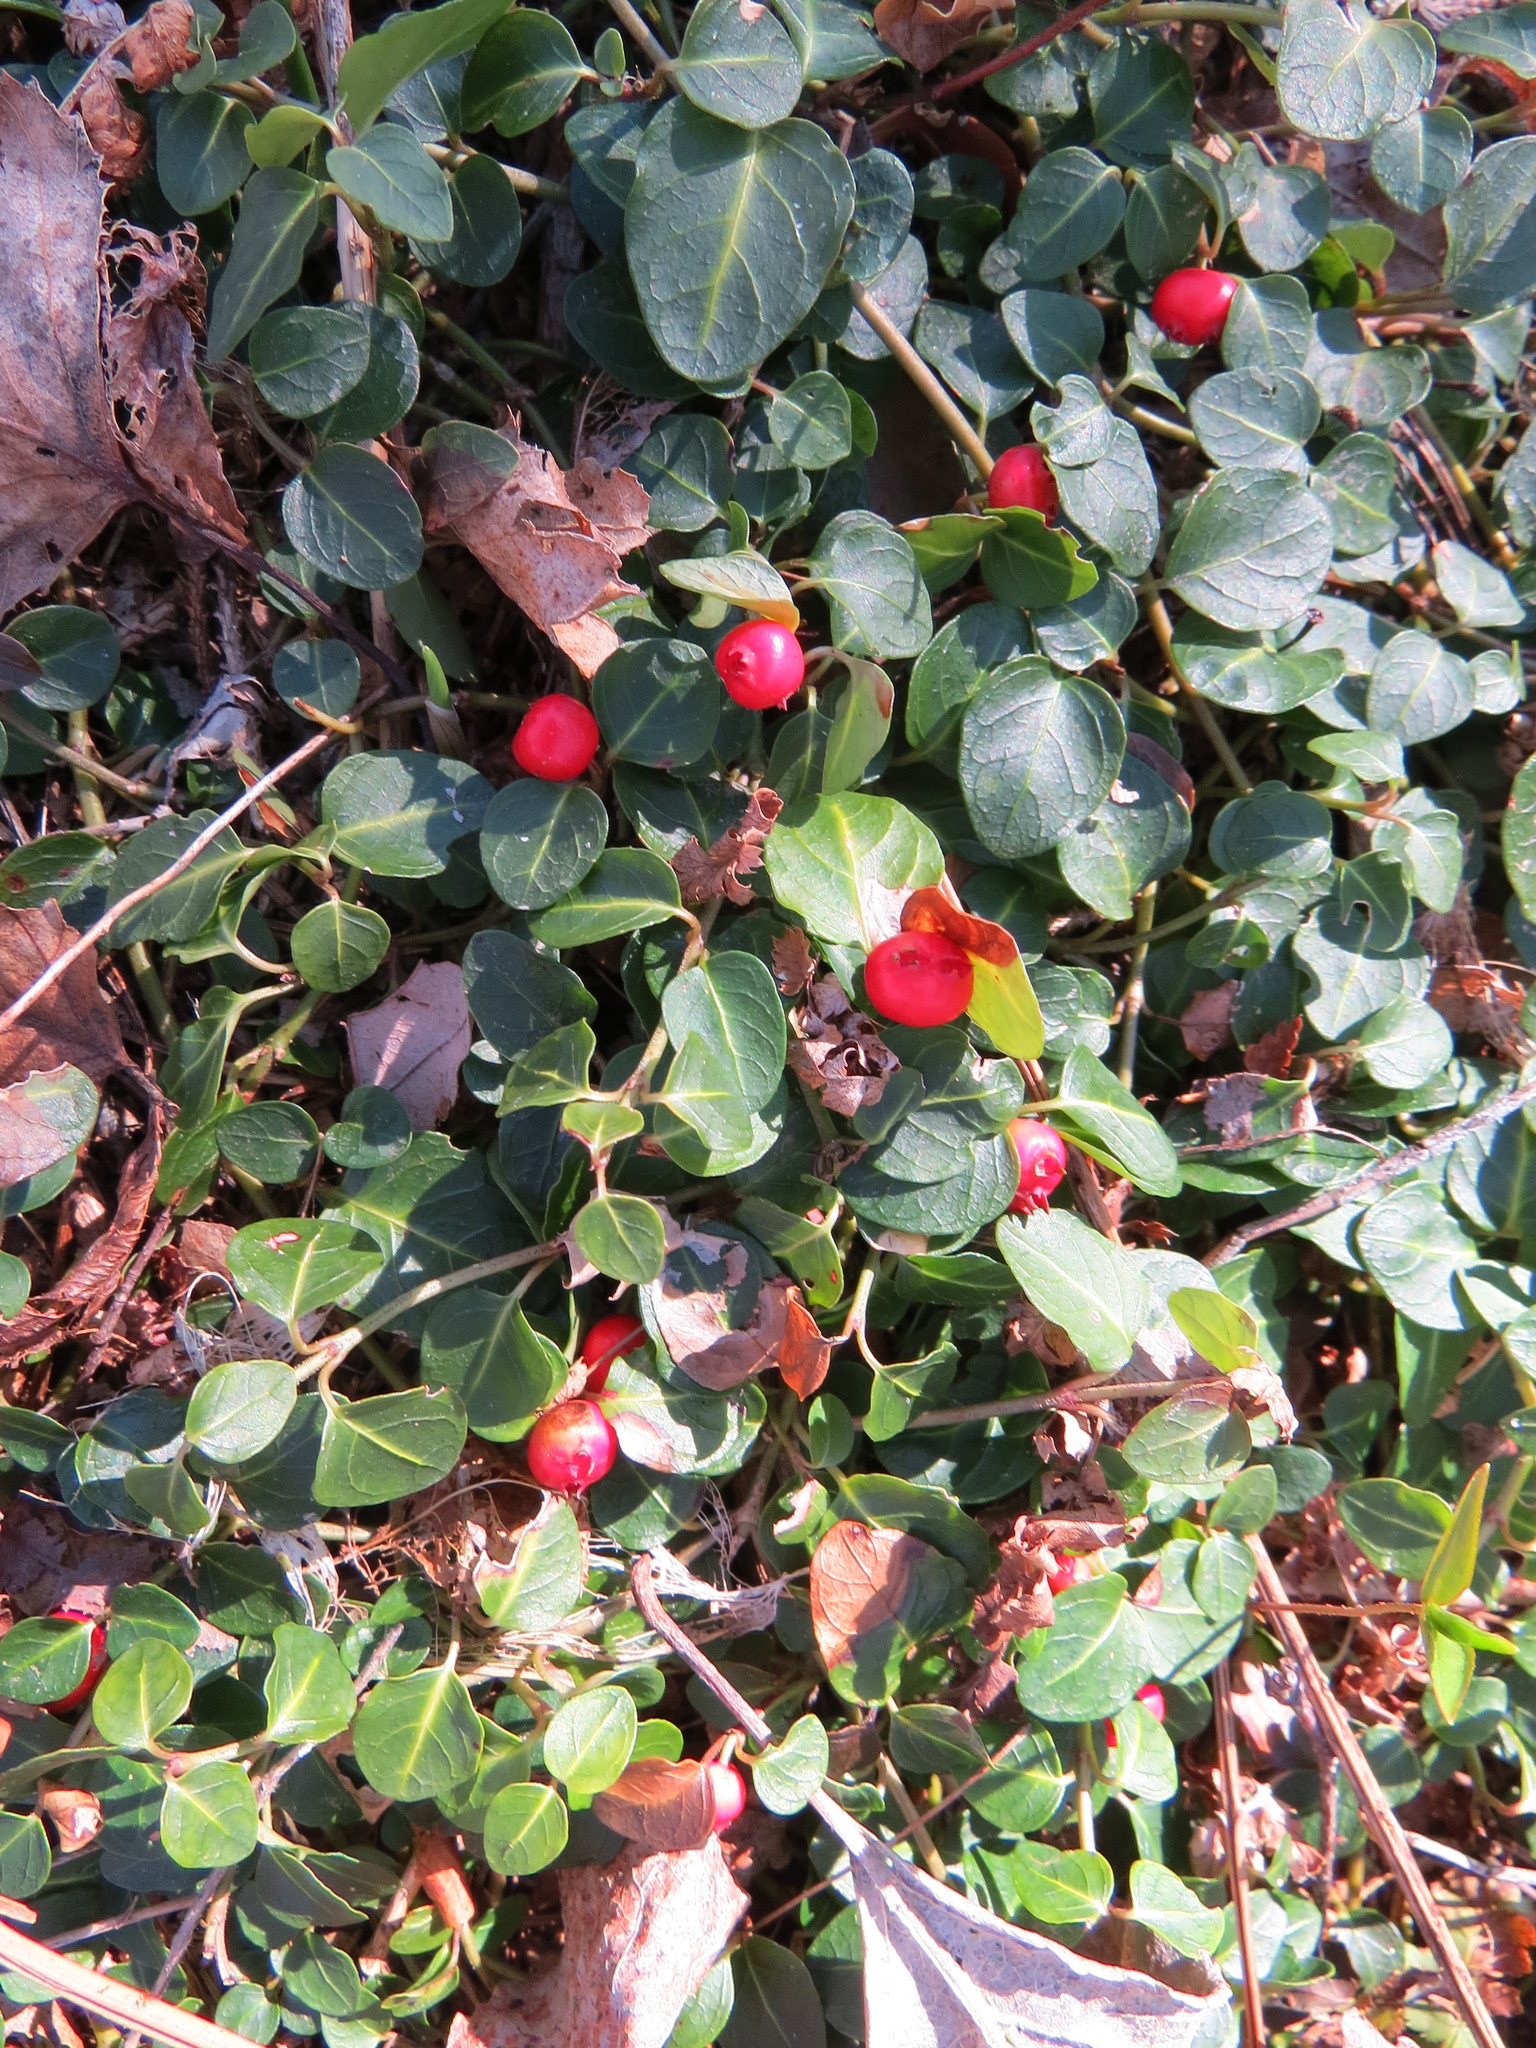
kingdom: Plantae
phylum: Tracheophyta
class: Magnoliopsida
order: Gentianales
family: Rubiaceae
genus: Mitchella
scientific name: Mitchella repens
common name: Partridge-berry
